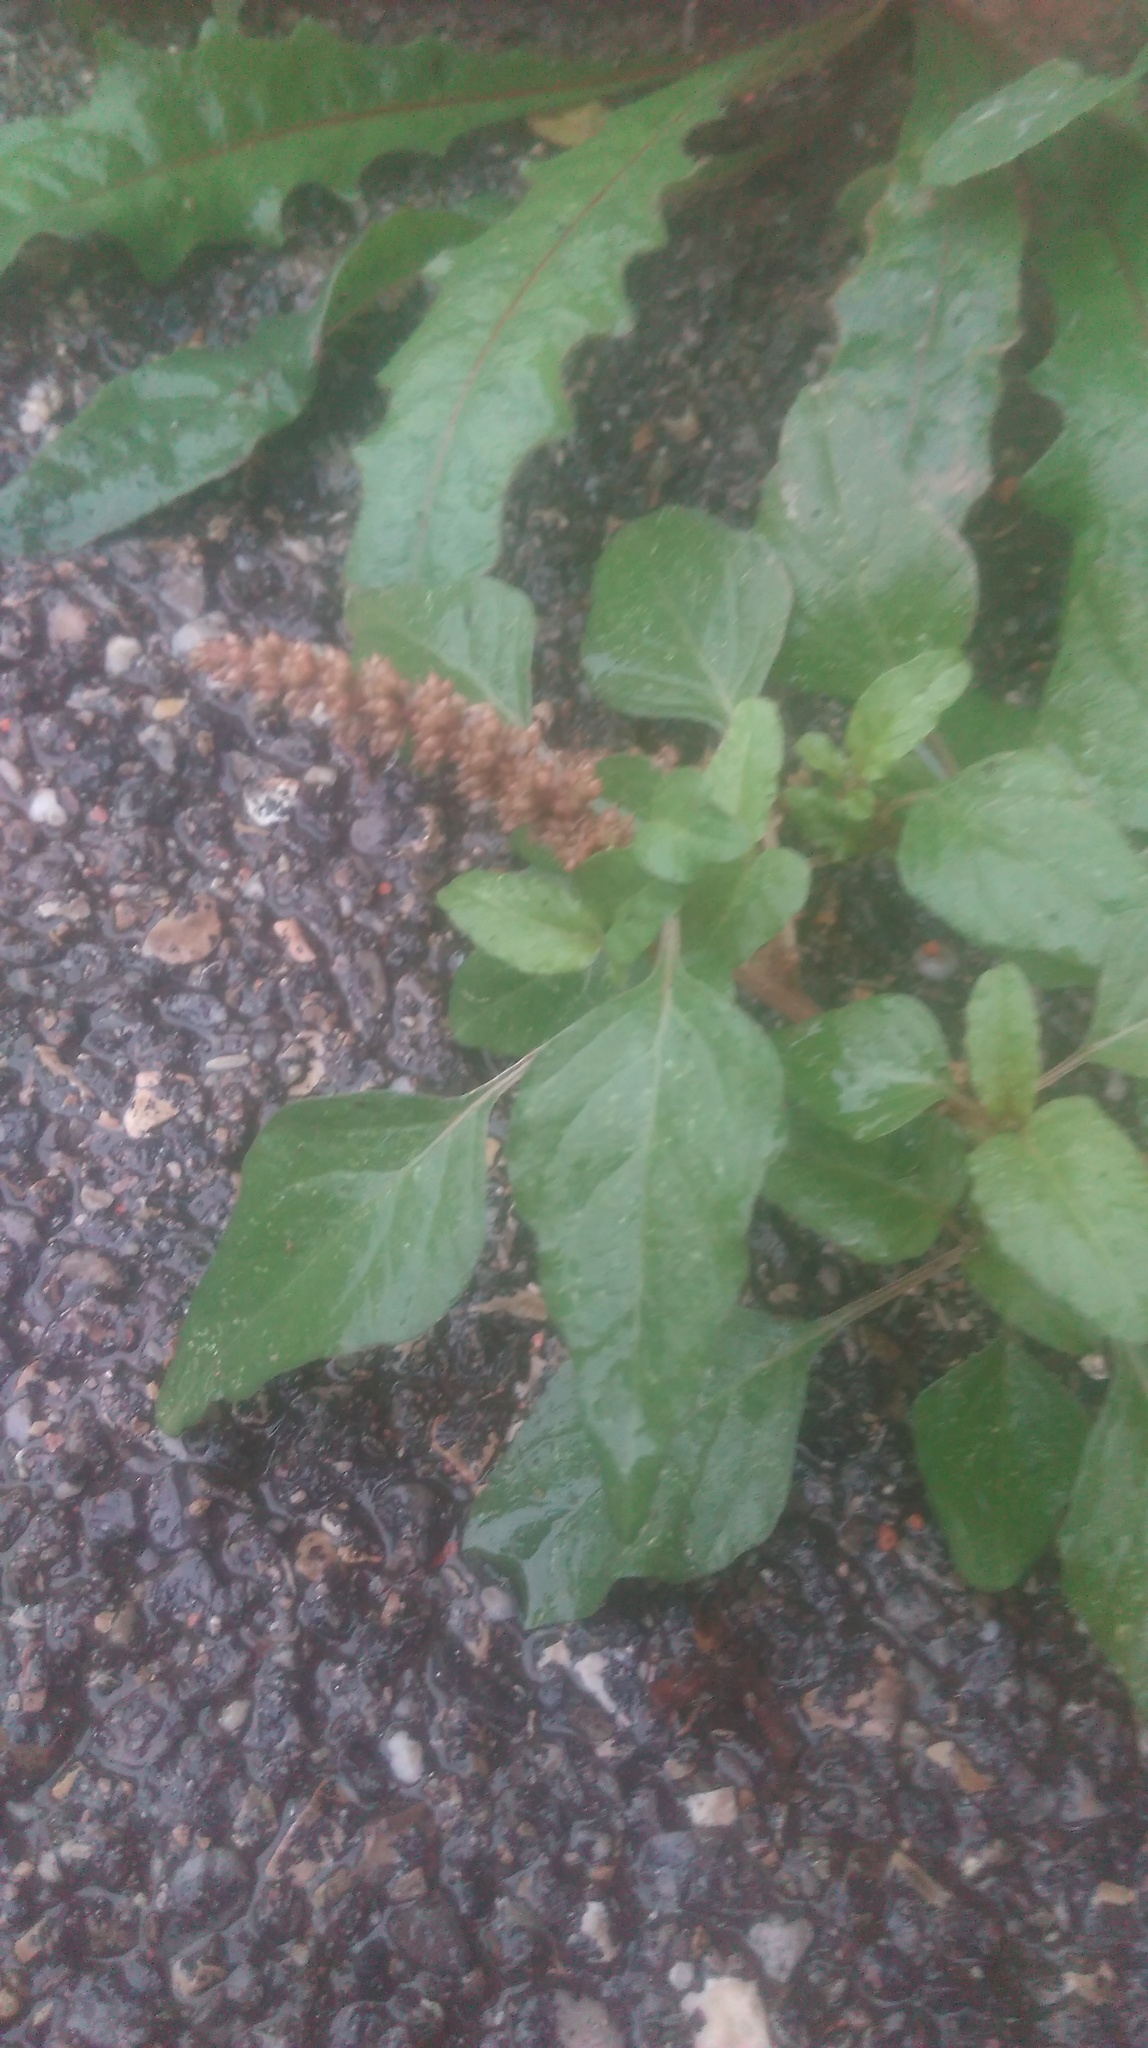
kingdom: Plantae
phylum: Tracheophyta
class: Magnoliopsida
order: Caryophyllales
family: Amaranthaceae
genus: Amaranthus
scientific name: Amaranthus deflexus
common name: Perennial pigweed
